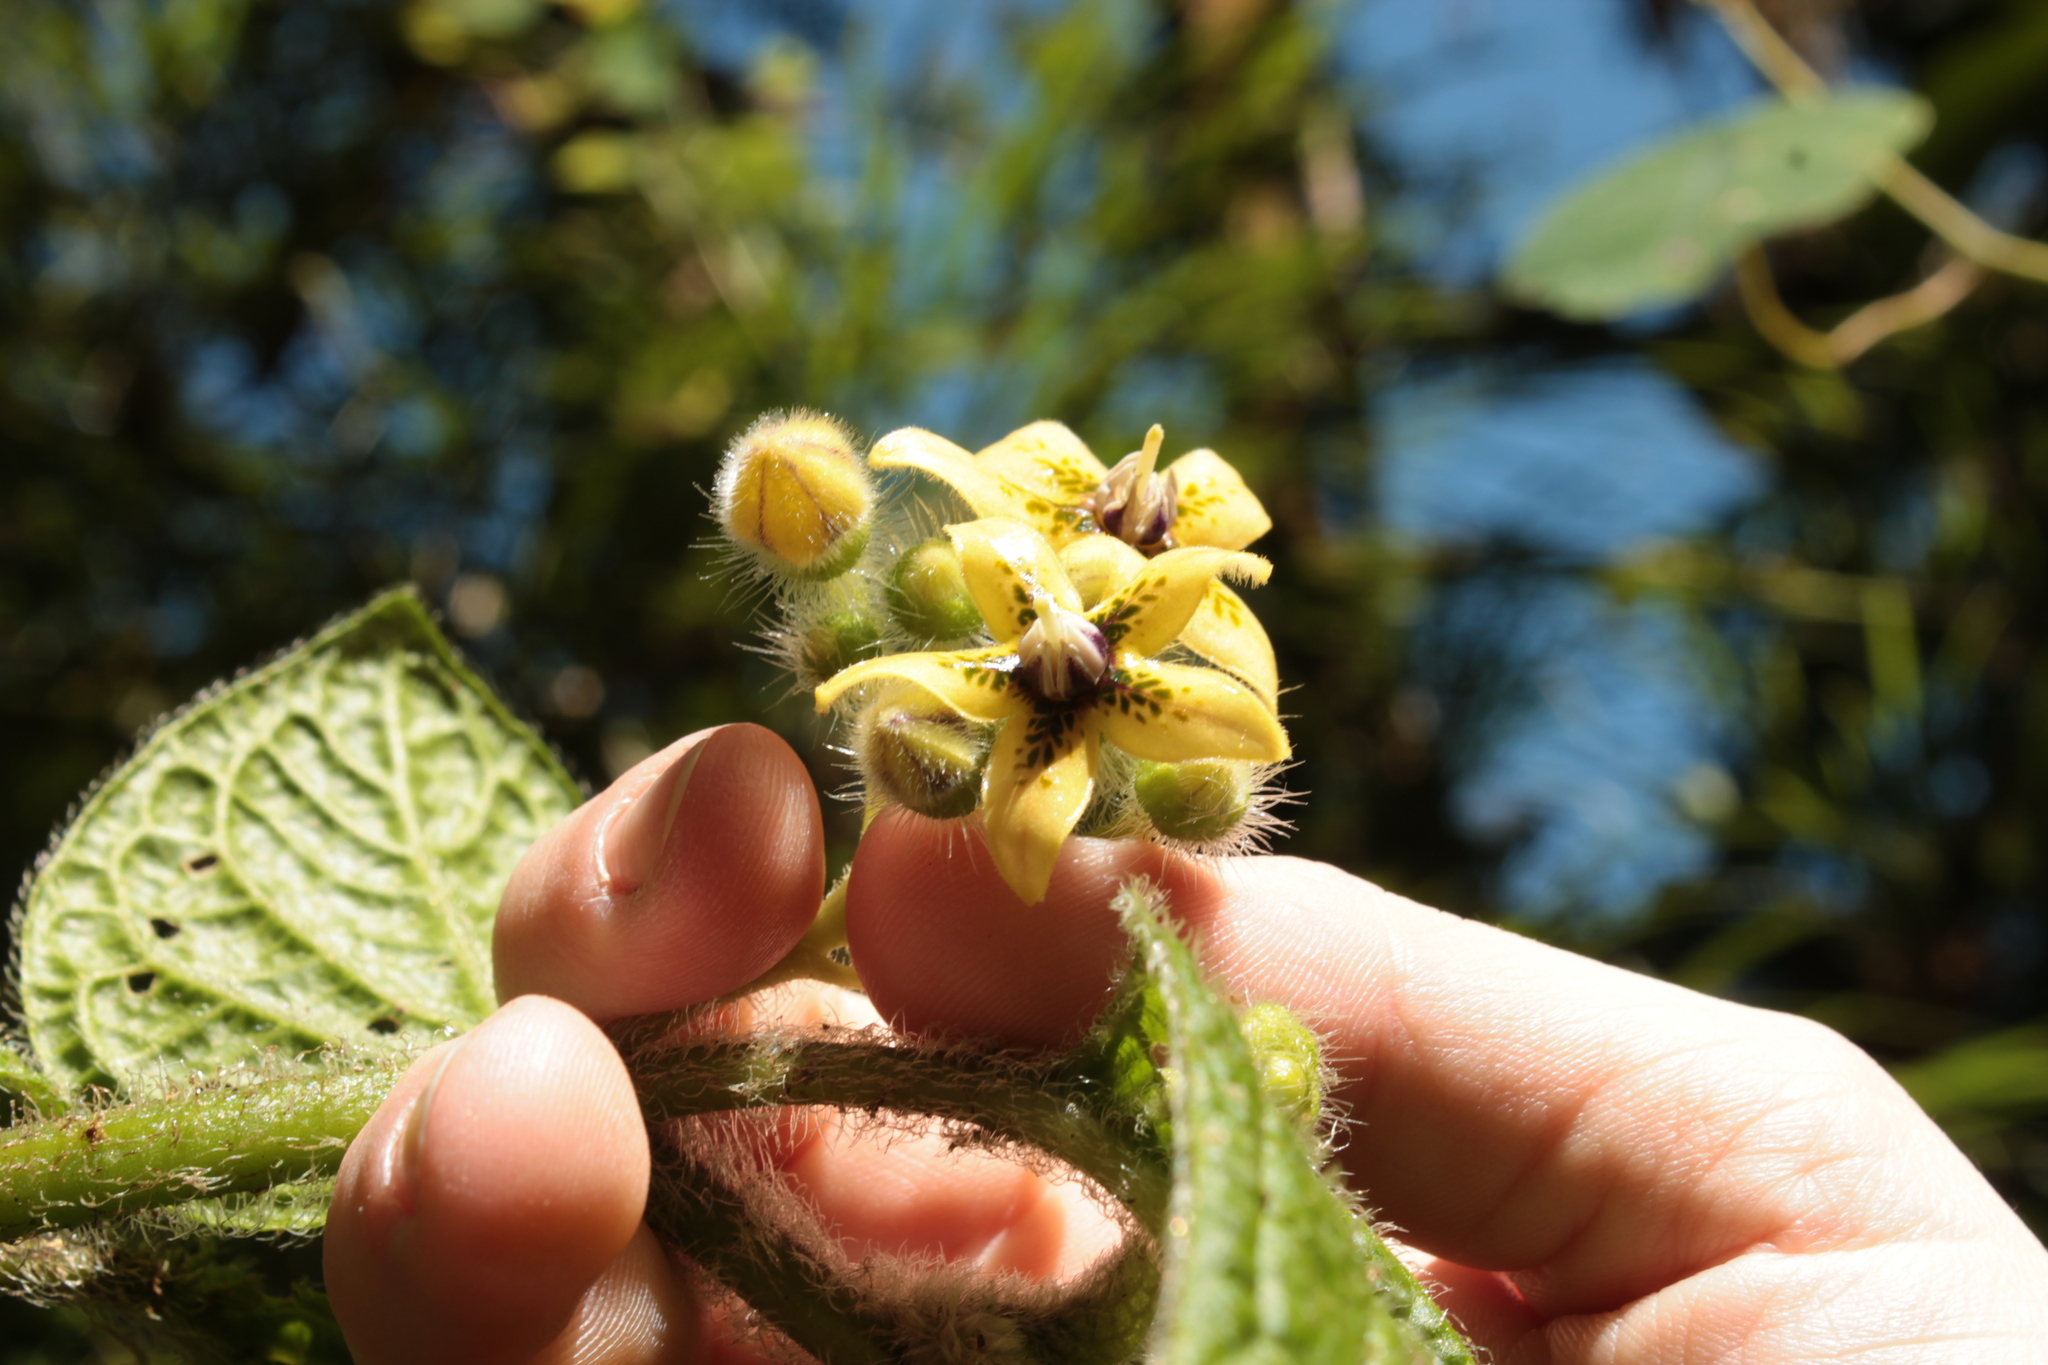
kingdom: Plantae
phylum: Tracheophyta
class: Magnoliopsida
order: Solanales
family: Solanaceae
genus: Witheringia
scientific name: Witheringia maculata
